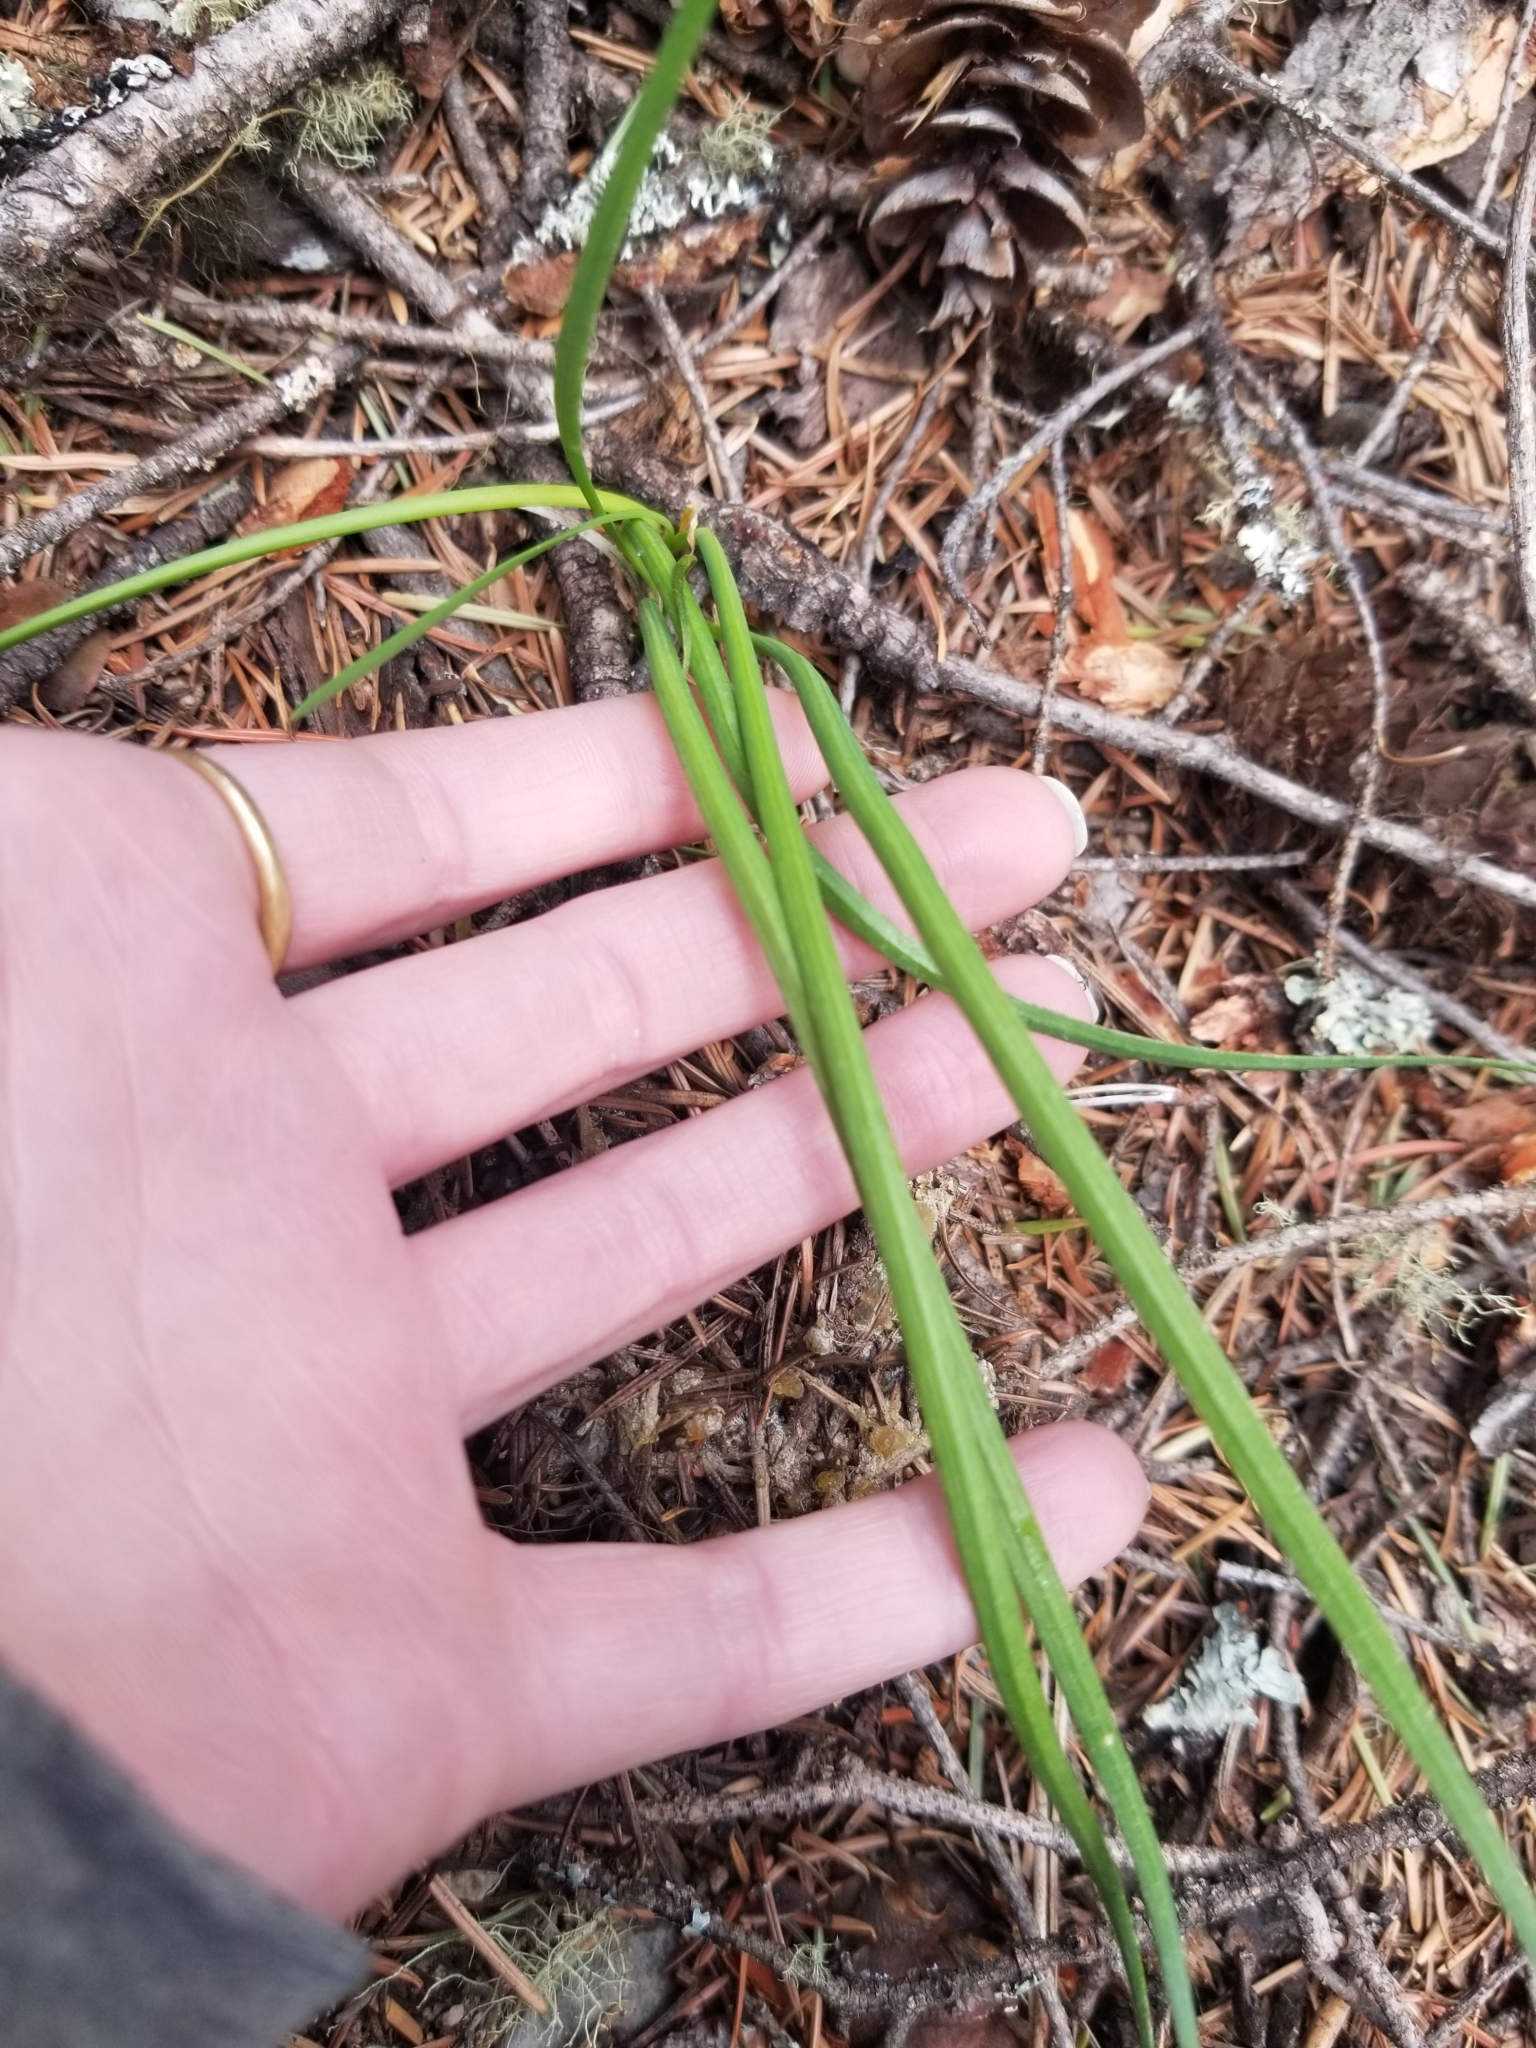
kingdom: Plantae
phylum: Tracheophyta
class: Liliopsida
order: Asparagales
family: Amaryllidaceae
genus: Allium
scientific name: Allium cernuum
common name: Nodding onion
